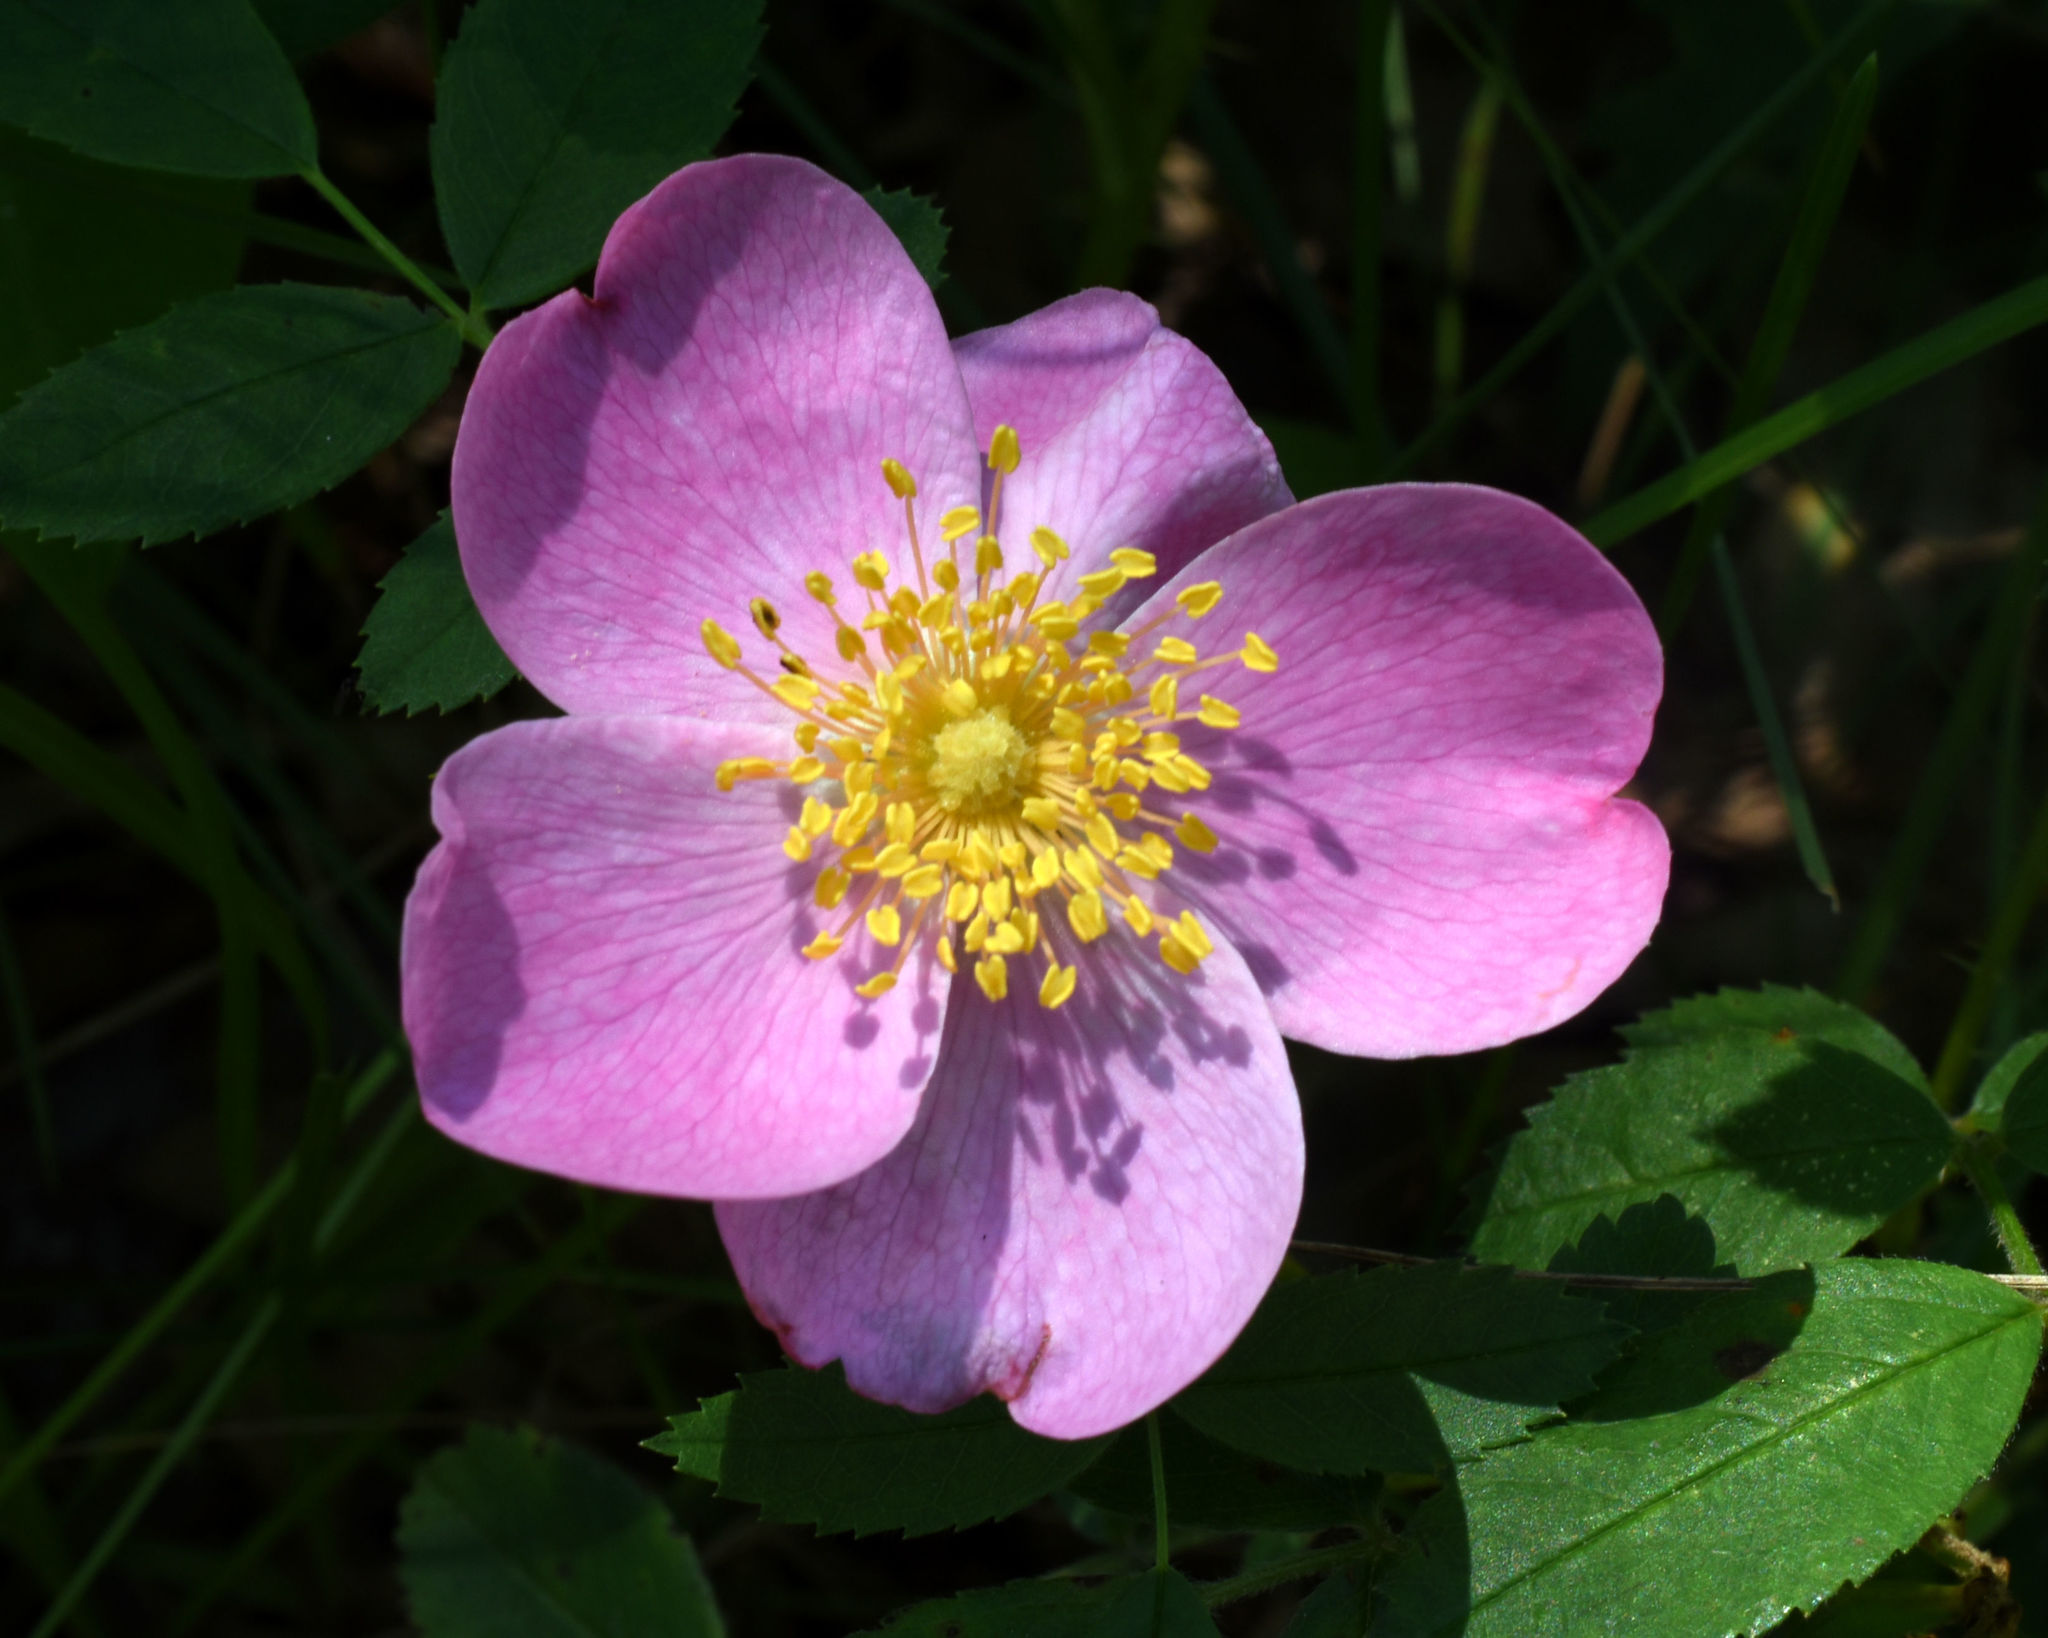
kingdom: Plantae
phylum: Tracheophyta
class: Magnoliopsida
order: Rosales
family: Rosaceae
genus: Rosa
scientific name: Rosa arkansana
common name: Prairie rose
